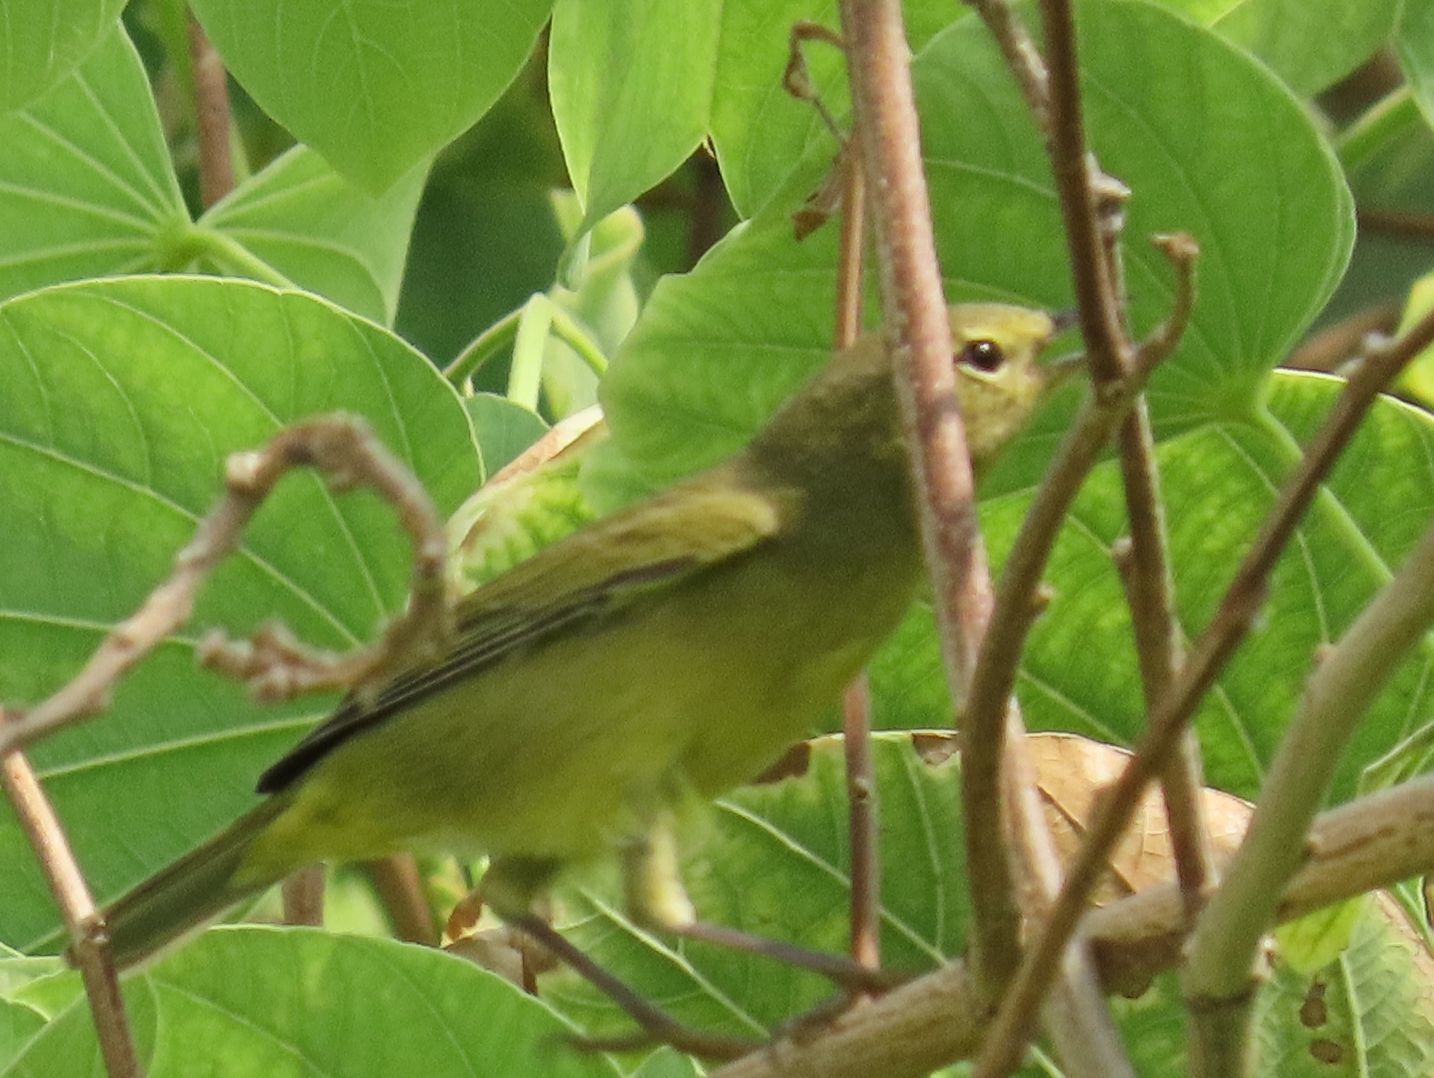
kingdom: Animalia
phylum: Chordata
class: Aves
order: Passeriformes
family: Parulidae
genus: Leiothlypis
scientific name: Leiothlypis celata
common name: Orange-crowned warbler
